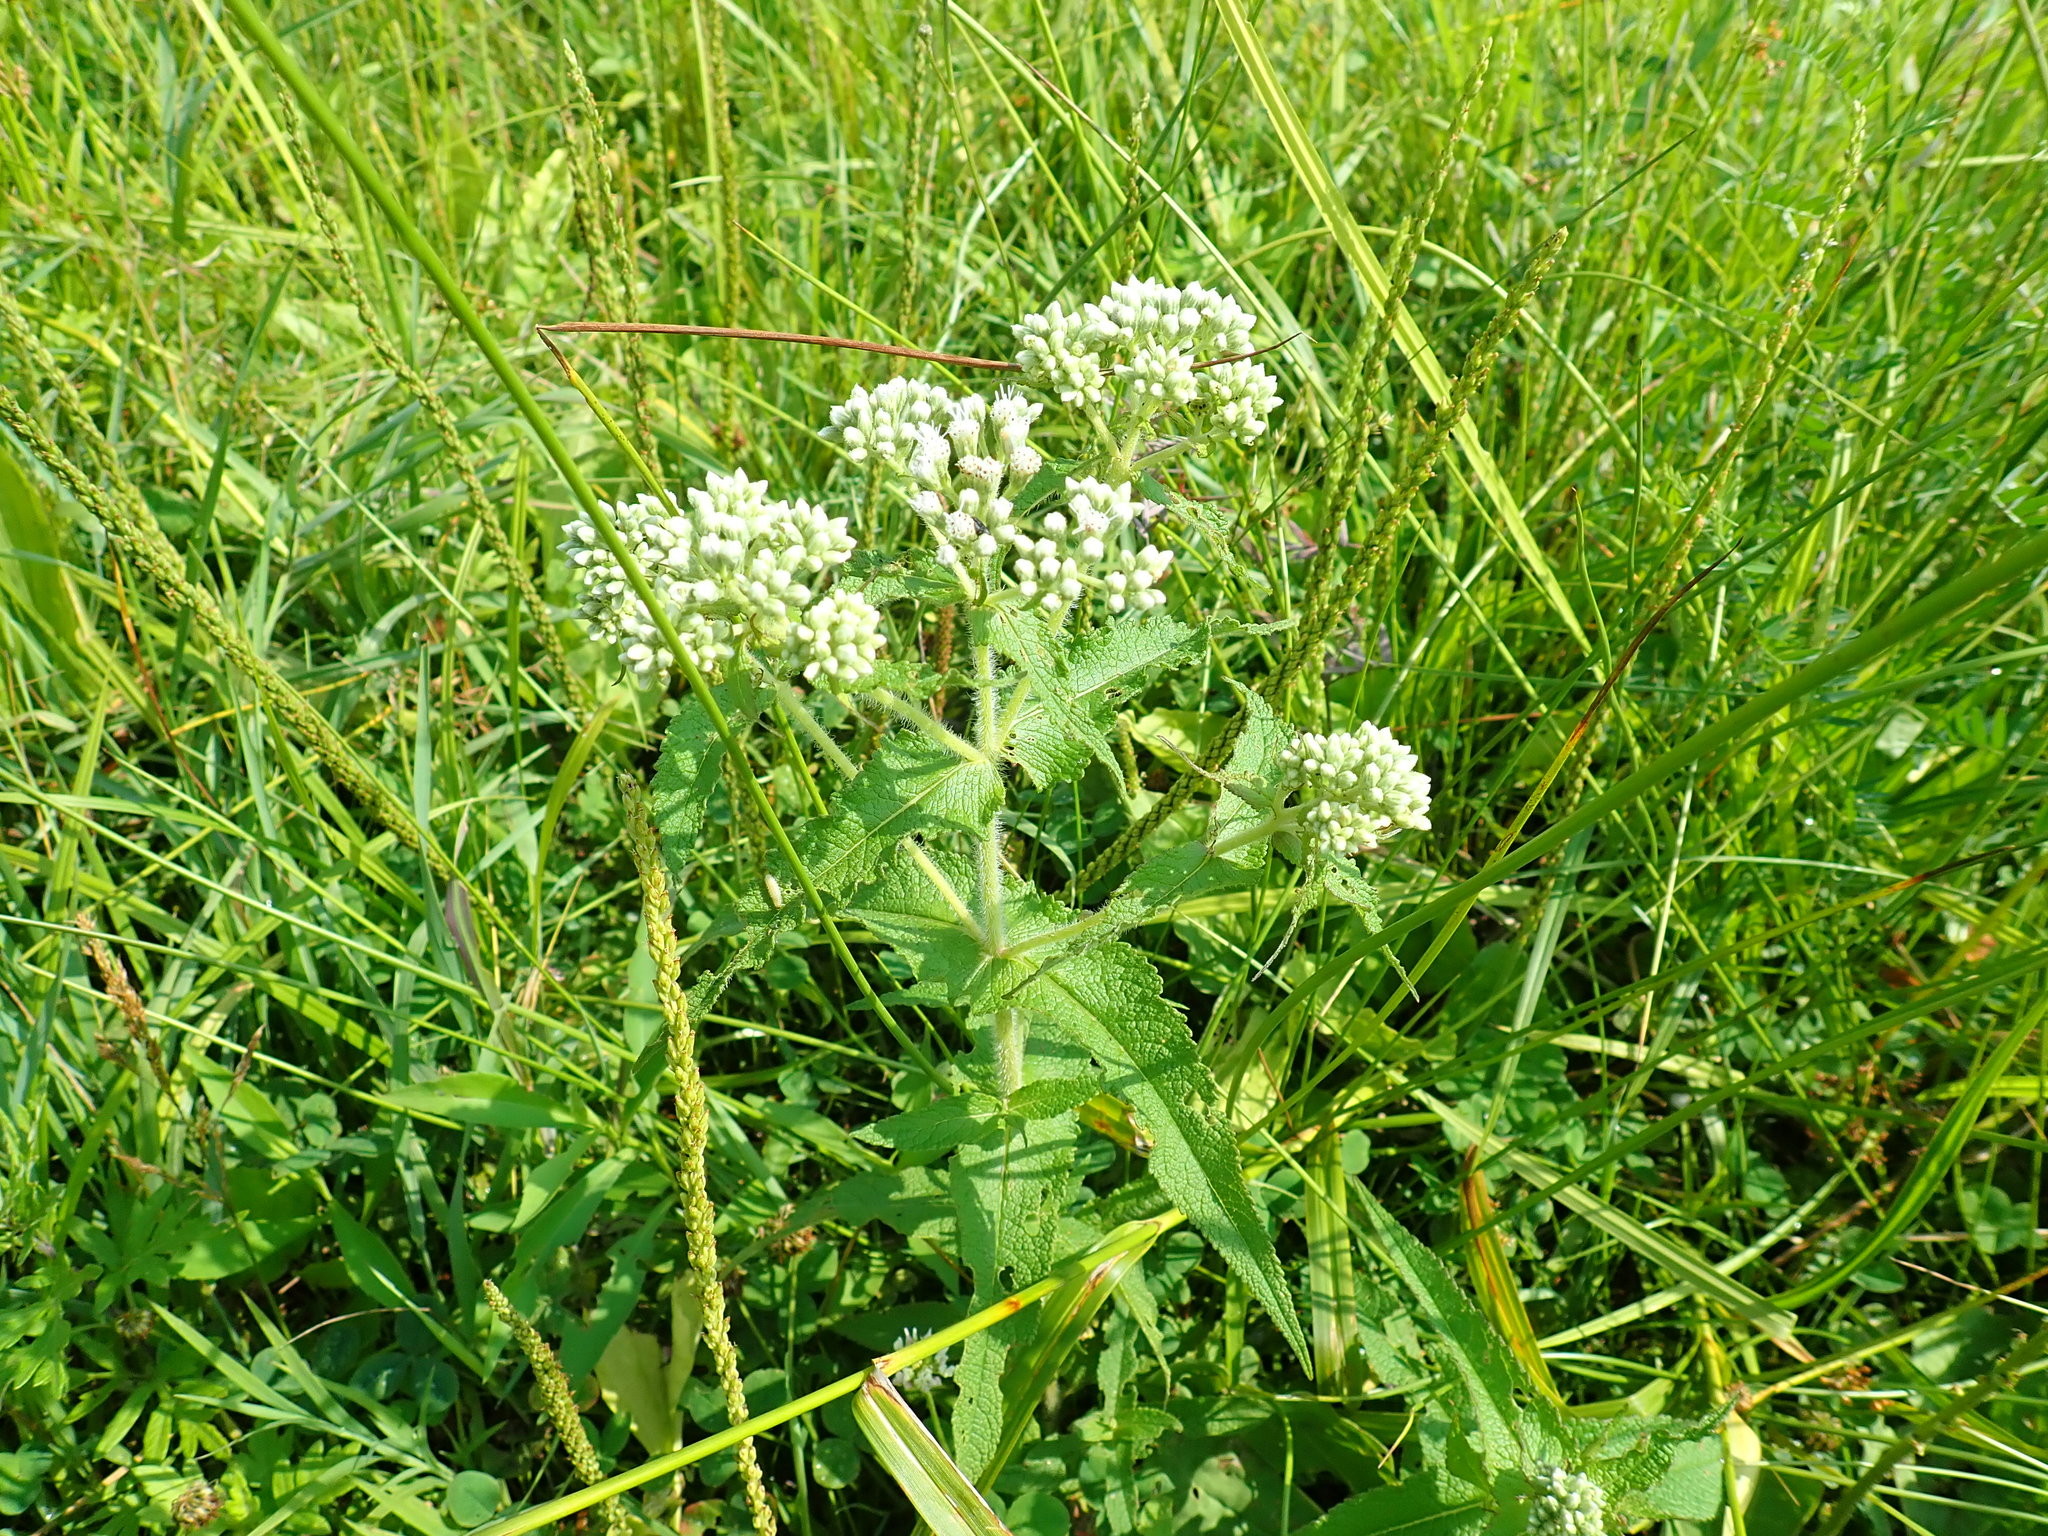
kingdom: Plantae
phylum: Tracheophyta
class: Magnoliopsida
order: Asterales
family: Asteraceae
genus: Eupatorium
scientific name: Eupatorium perfoliatum
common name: Boneset
